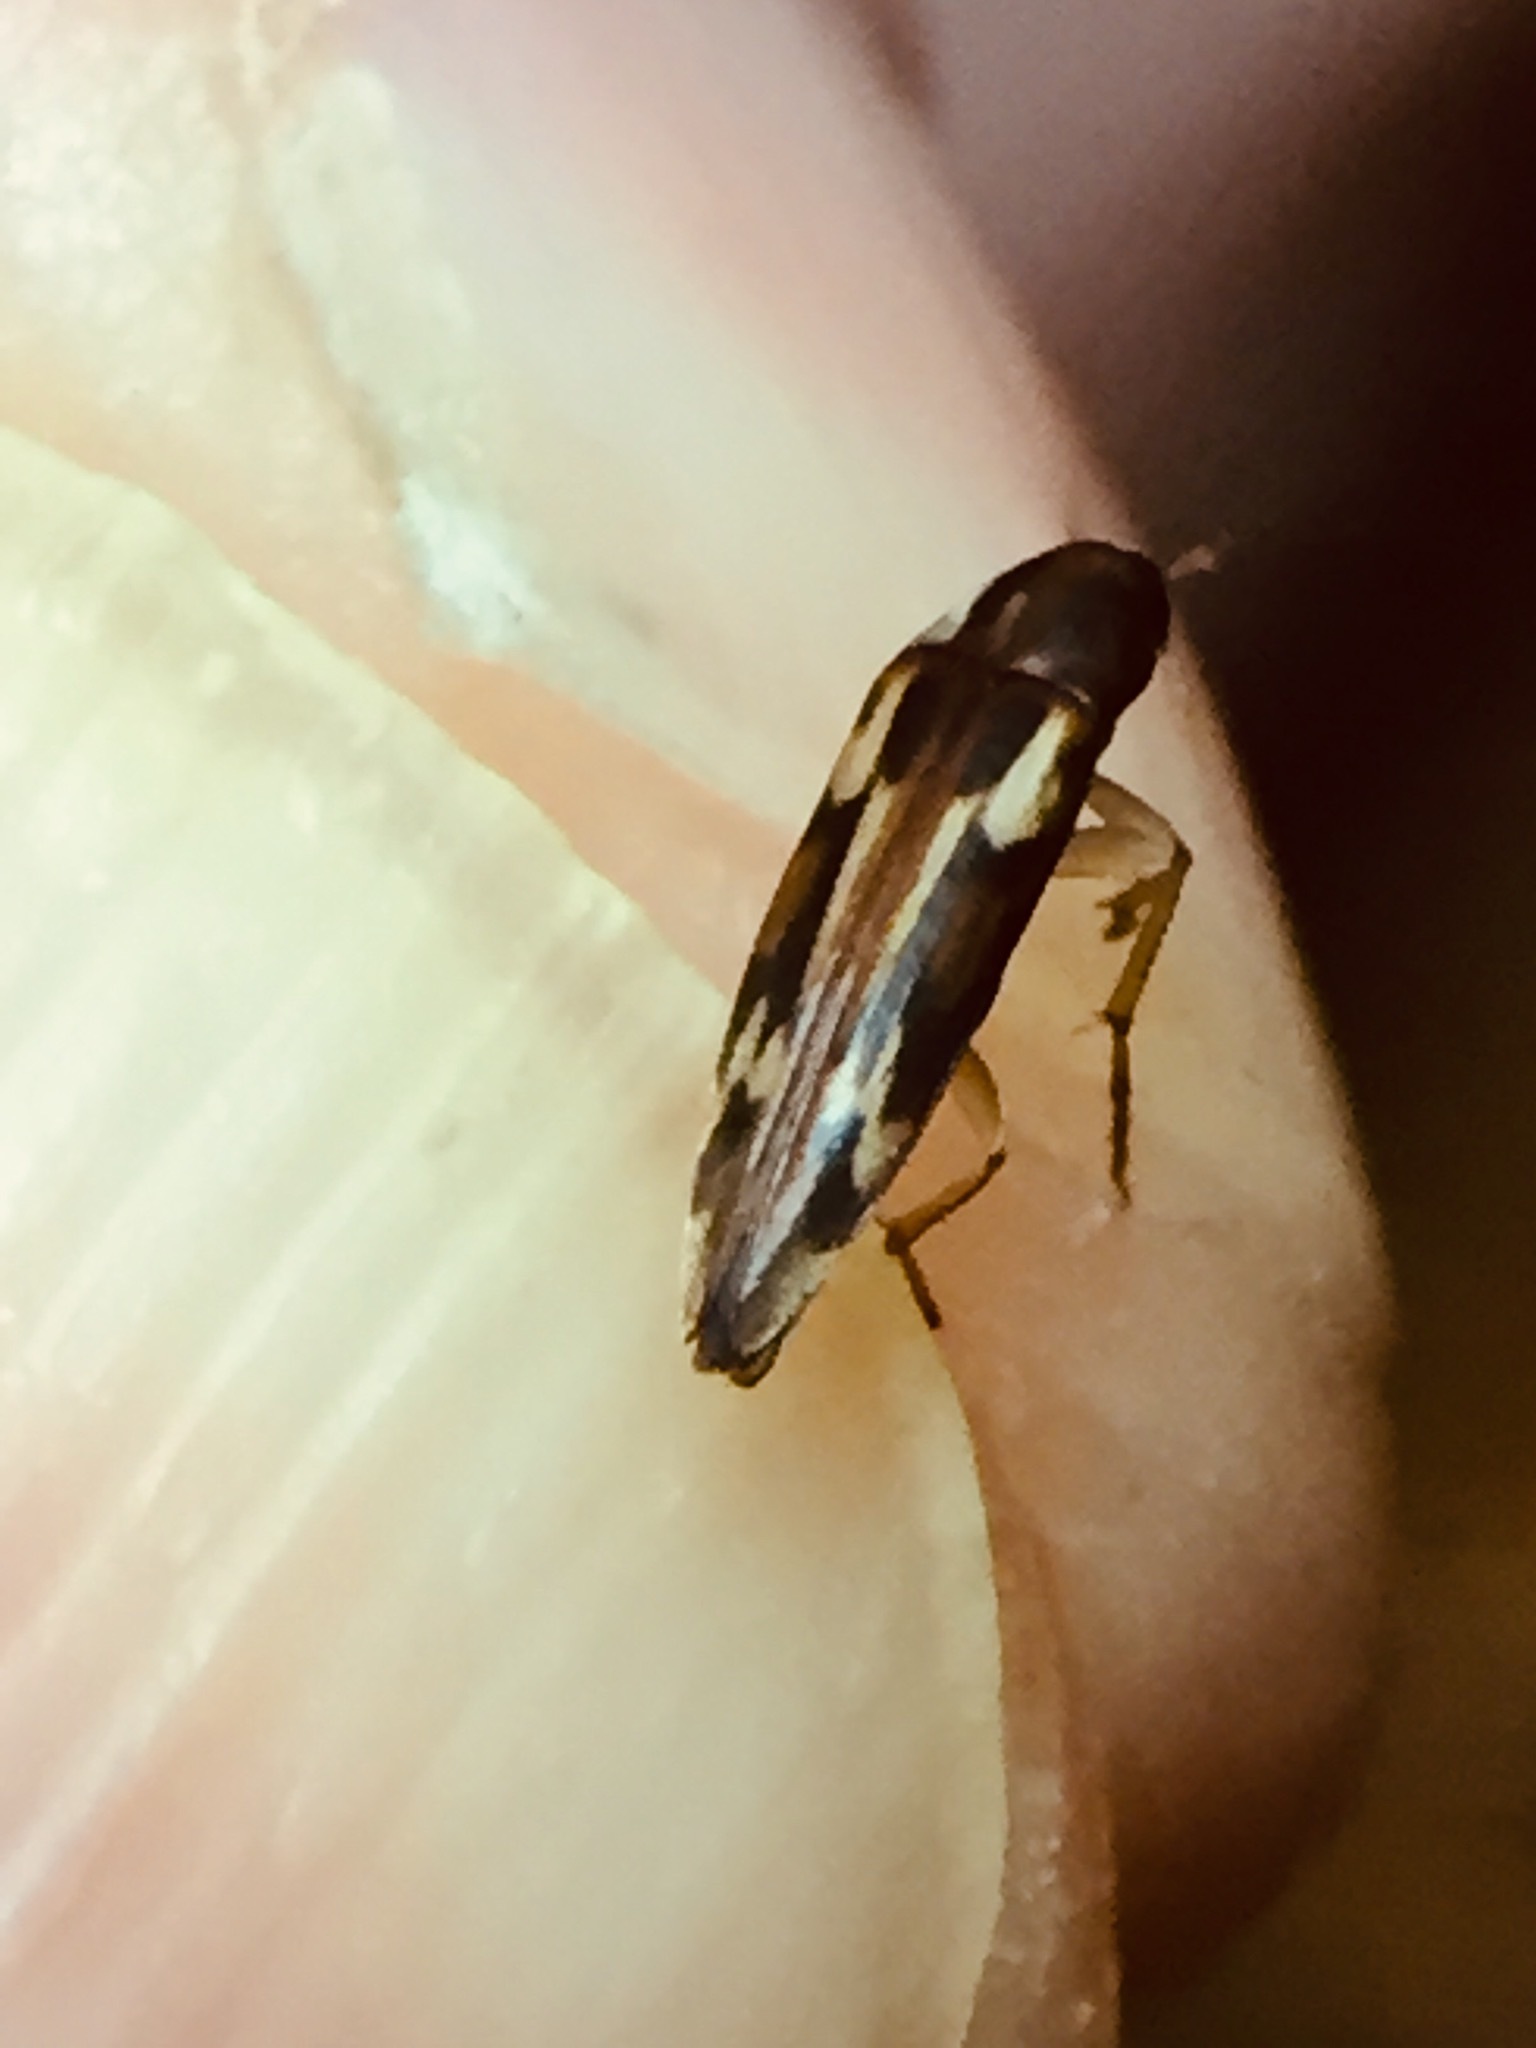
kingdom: Animalia
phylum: Arthropoda
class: Insecta
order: Neuroptera
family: Mesochrysopidae
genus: Allopterus
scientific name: Allopterus
